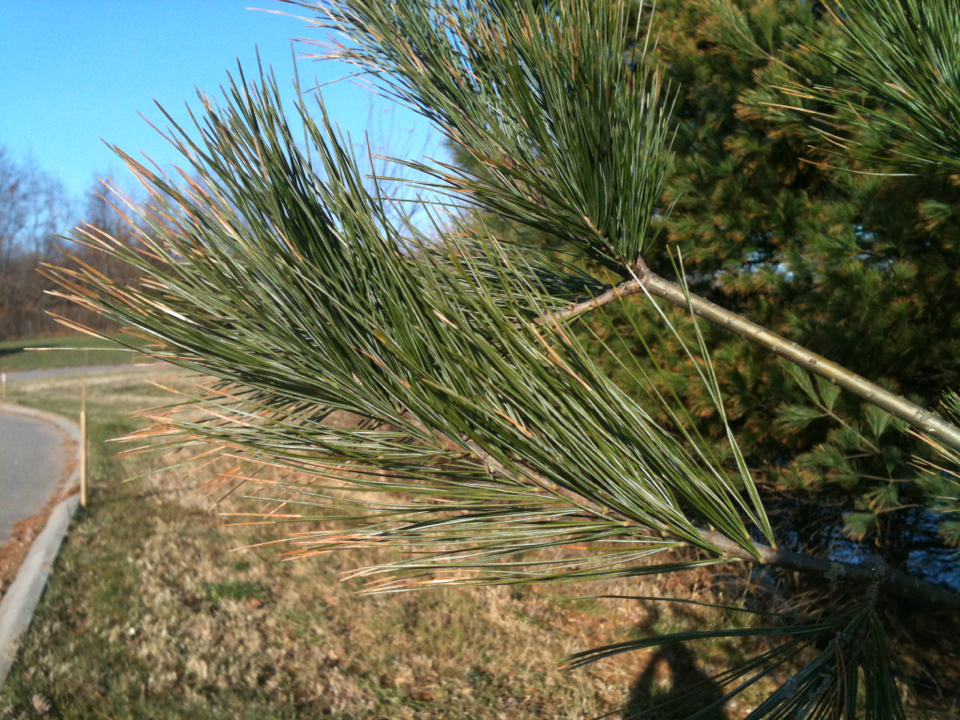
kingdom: Plantae
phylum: Tracheophyta
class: Pinopsida
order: Pinales
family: Pinaceae
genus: Pinus
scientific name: Pinus strobus
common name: Weymouth pine
